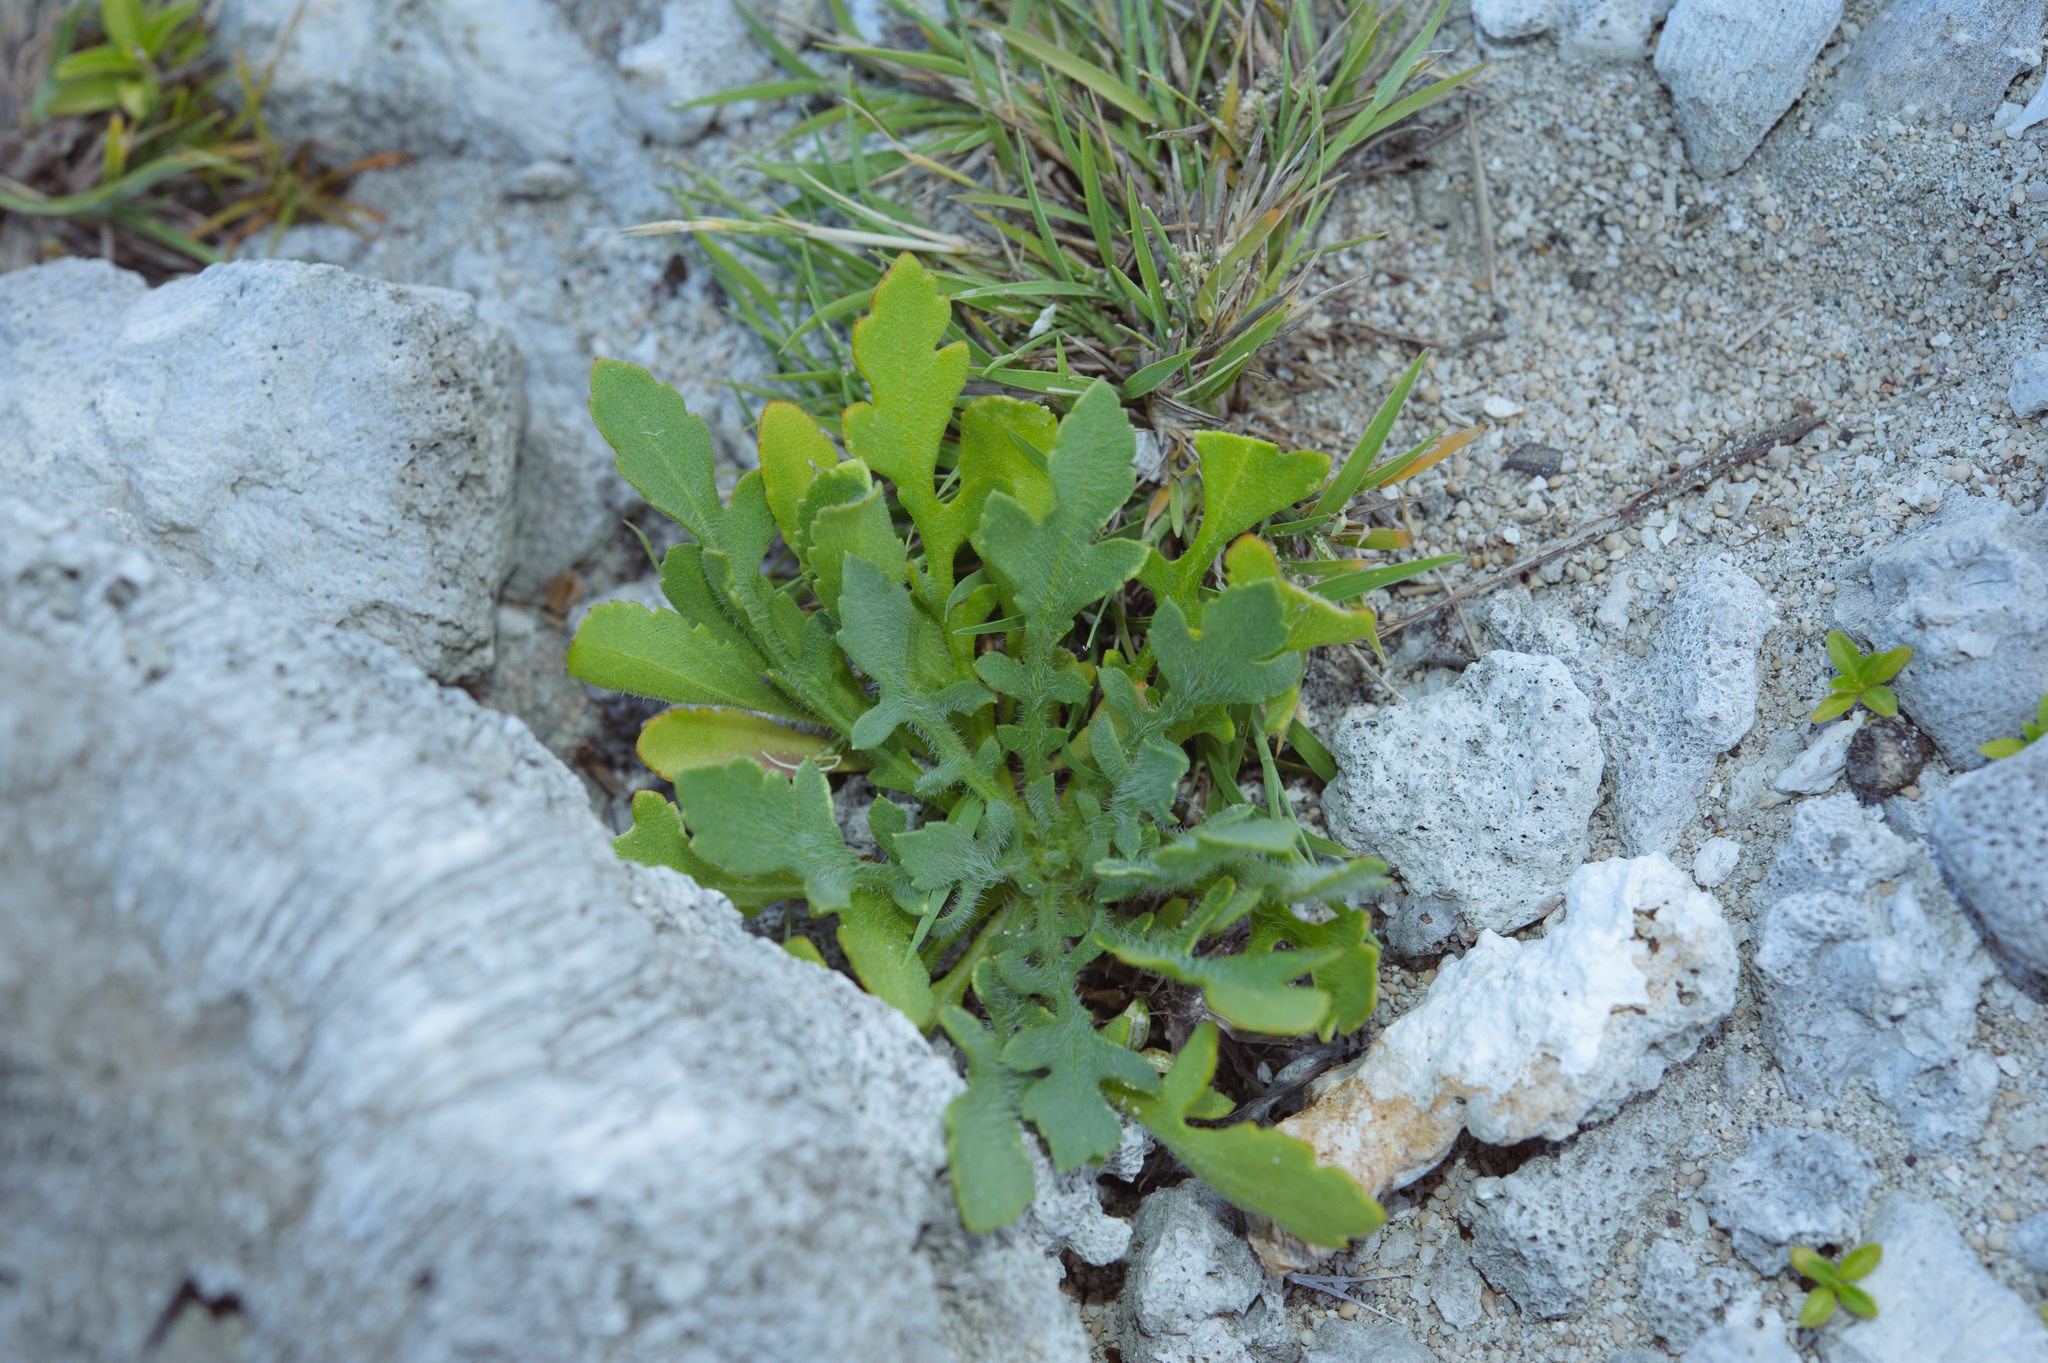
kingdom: Plantae
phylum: Tracheophyta
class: Magnoliopsida
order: Asterales
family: Asteraceae
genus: Crossostephium
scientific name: Crossostephium chinense
